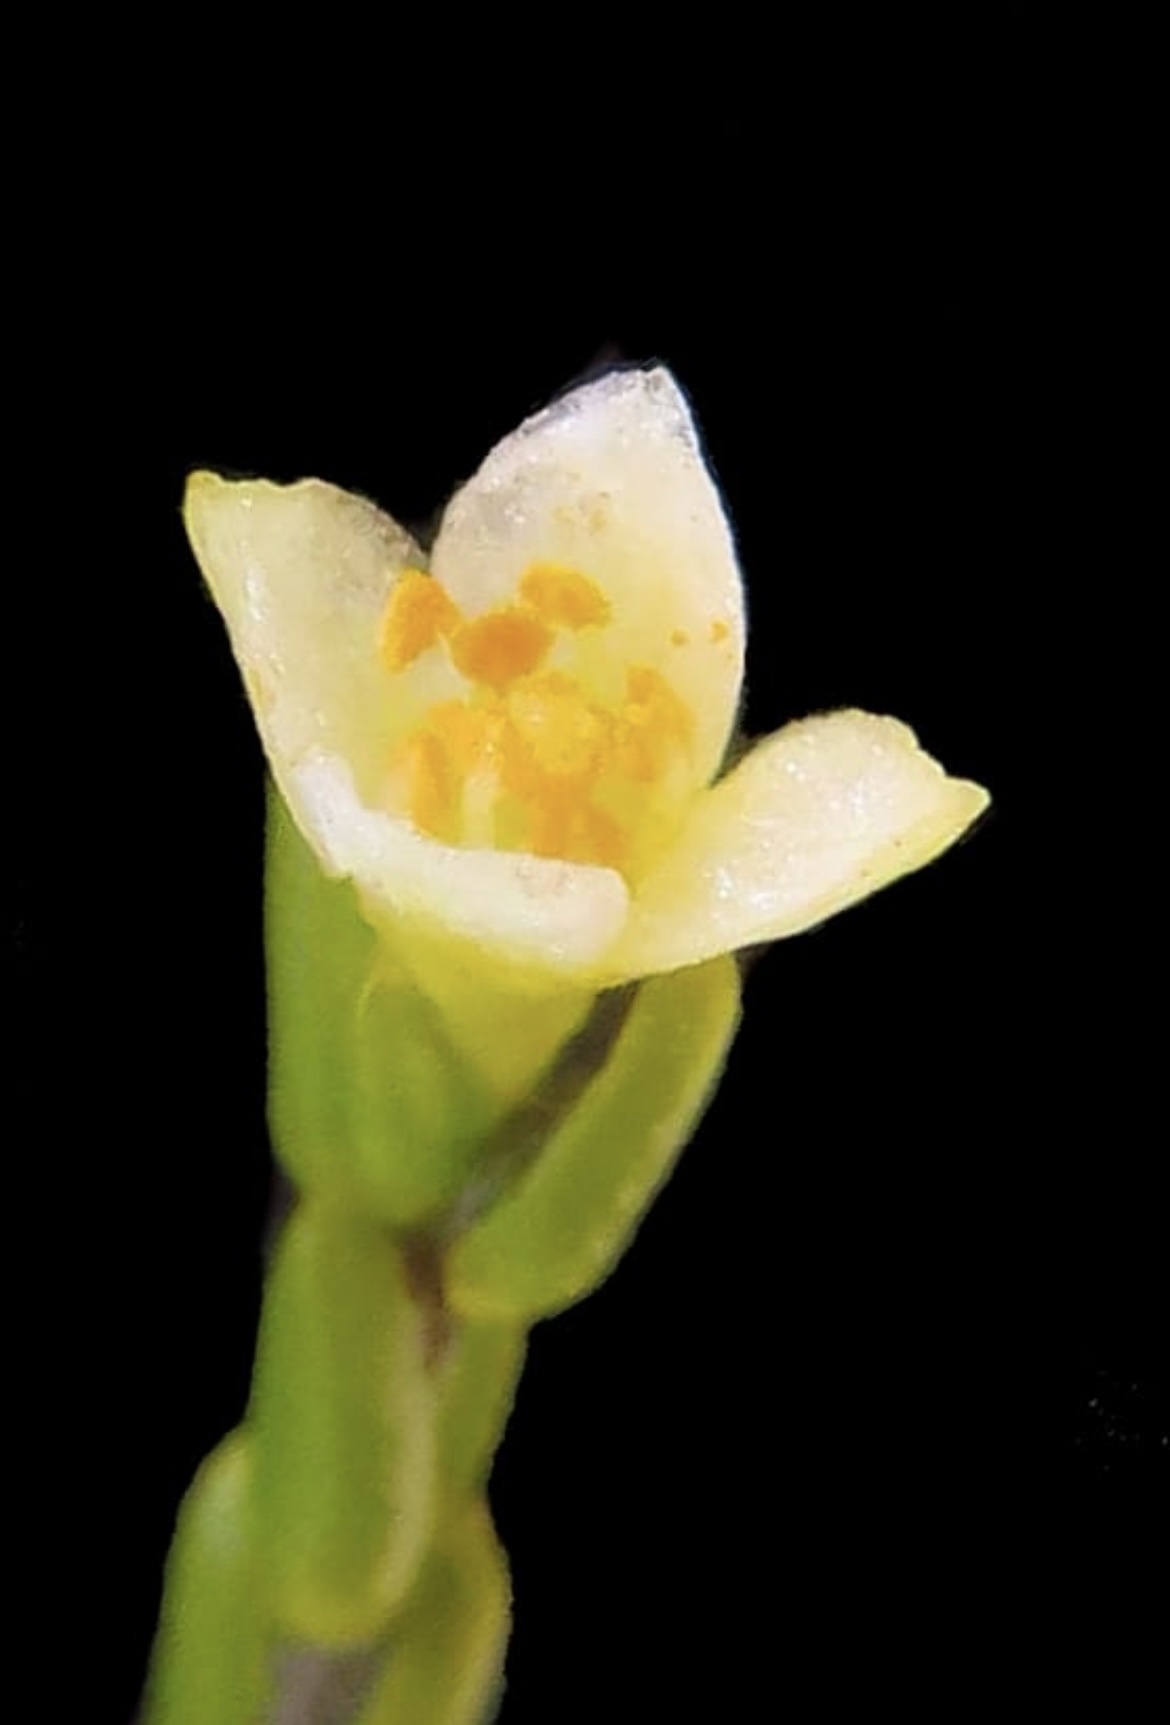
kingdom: Plantae
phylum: Tracheophyta
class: Magnoliopsida
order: Malvales
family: Thymelaeaceae
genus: Lachnaea
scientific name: Lachnaea axillaris
